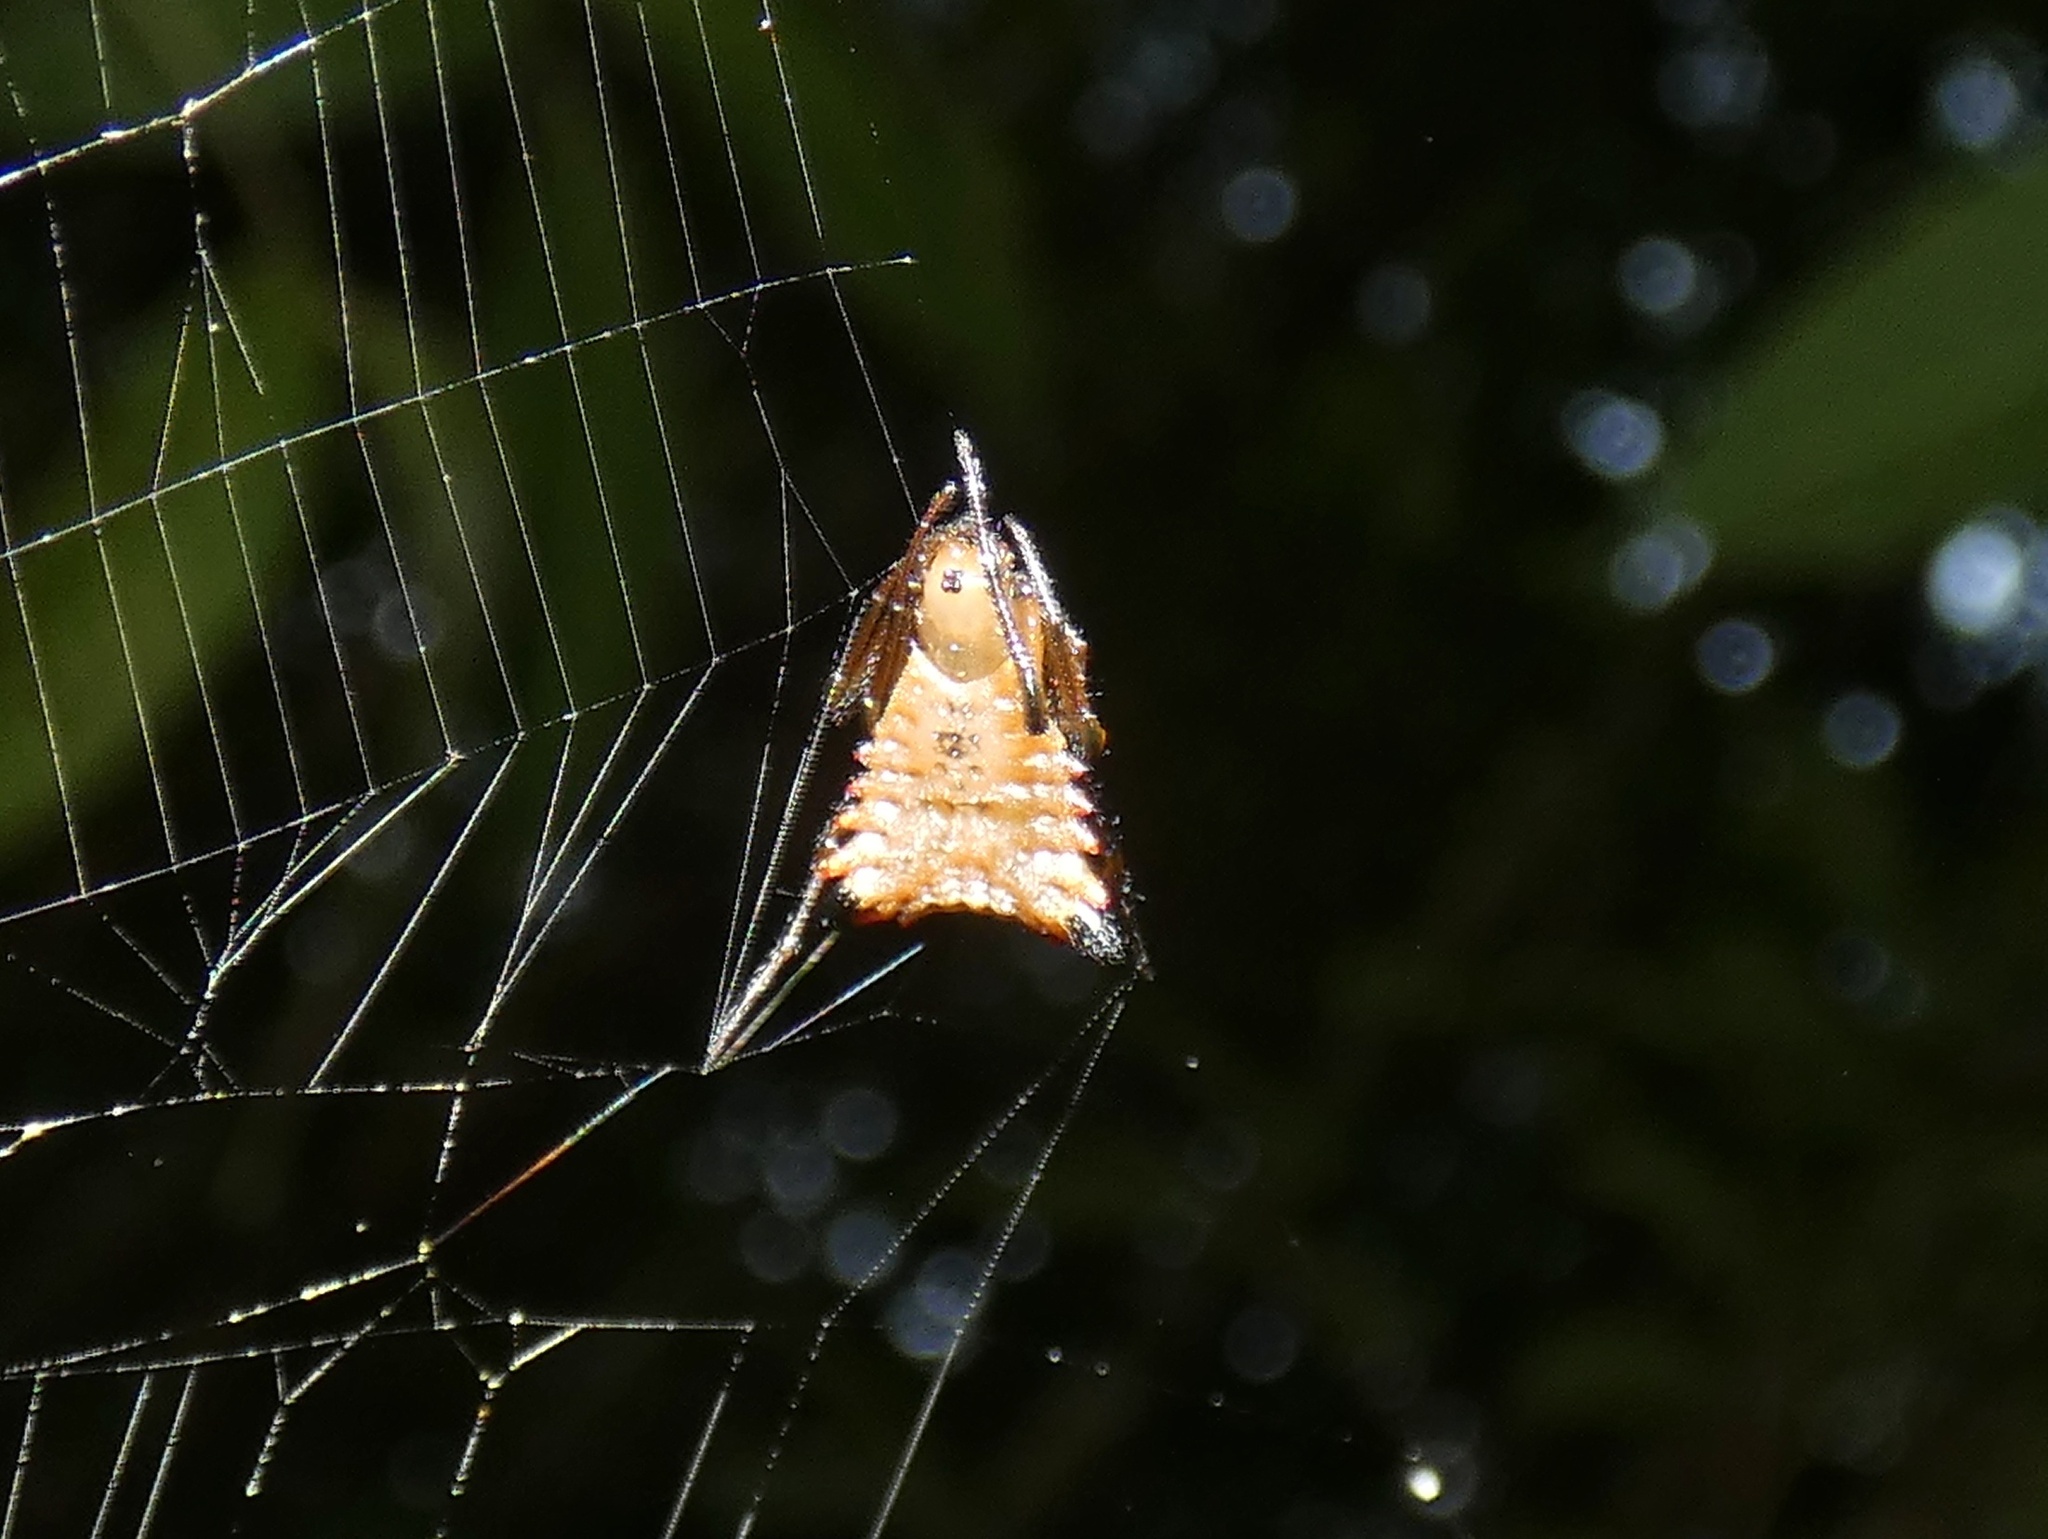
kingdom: Animalia
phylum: Arthropoda
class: Arachnida
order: Araneae
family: Araneidae
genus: Micrathena
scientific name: Micrathena excavata
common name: Orb weavers
